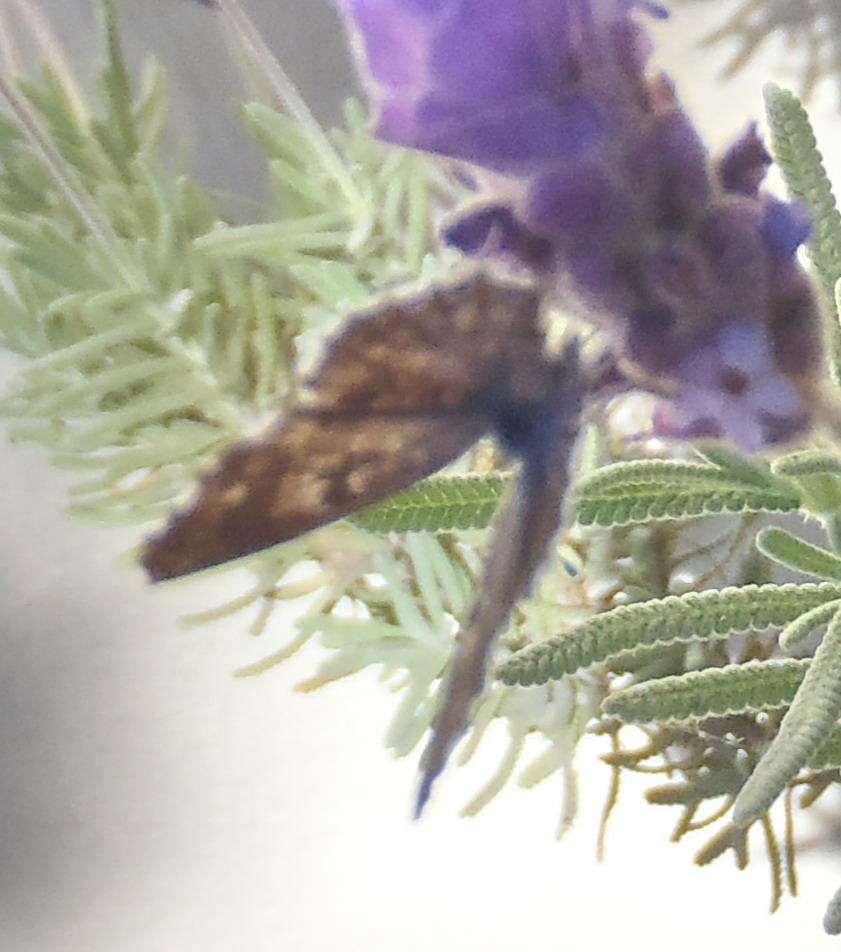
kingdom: Animalia
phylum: Arthropoda
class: Insecta
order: Lepidoptera
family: Lycaenidae
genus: Cacyreus
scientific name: Cacyreus lingeus
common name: Bush bronze
